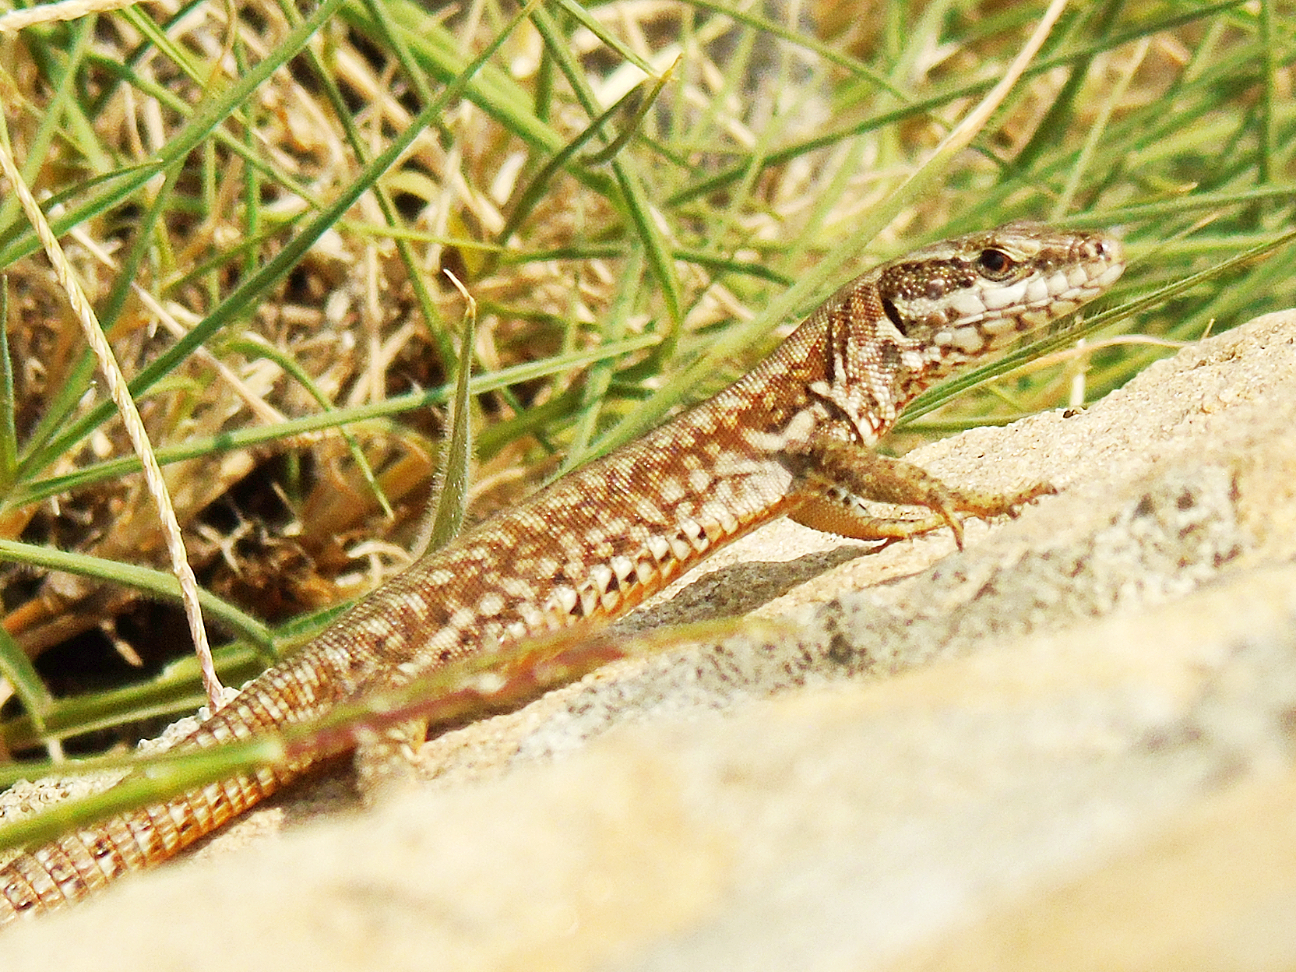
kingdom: Animalia
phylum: Chordata
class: Squamata
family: Lacertidae
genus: Podarcis
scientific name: Podarcis muralis
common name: Common wall lizard
